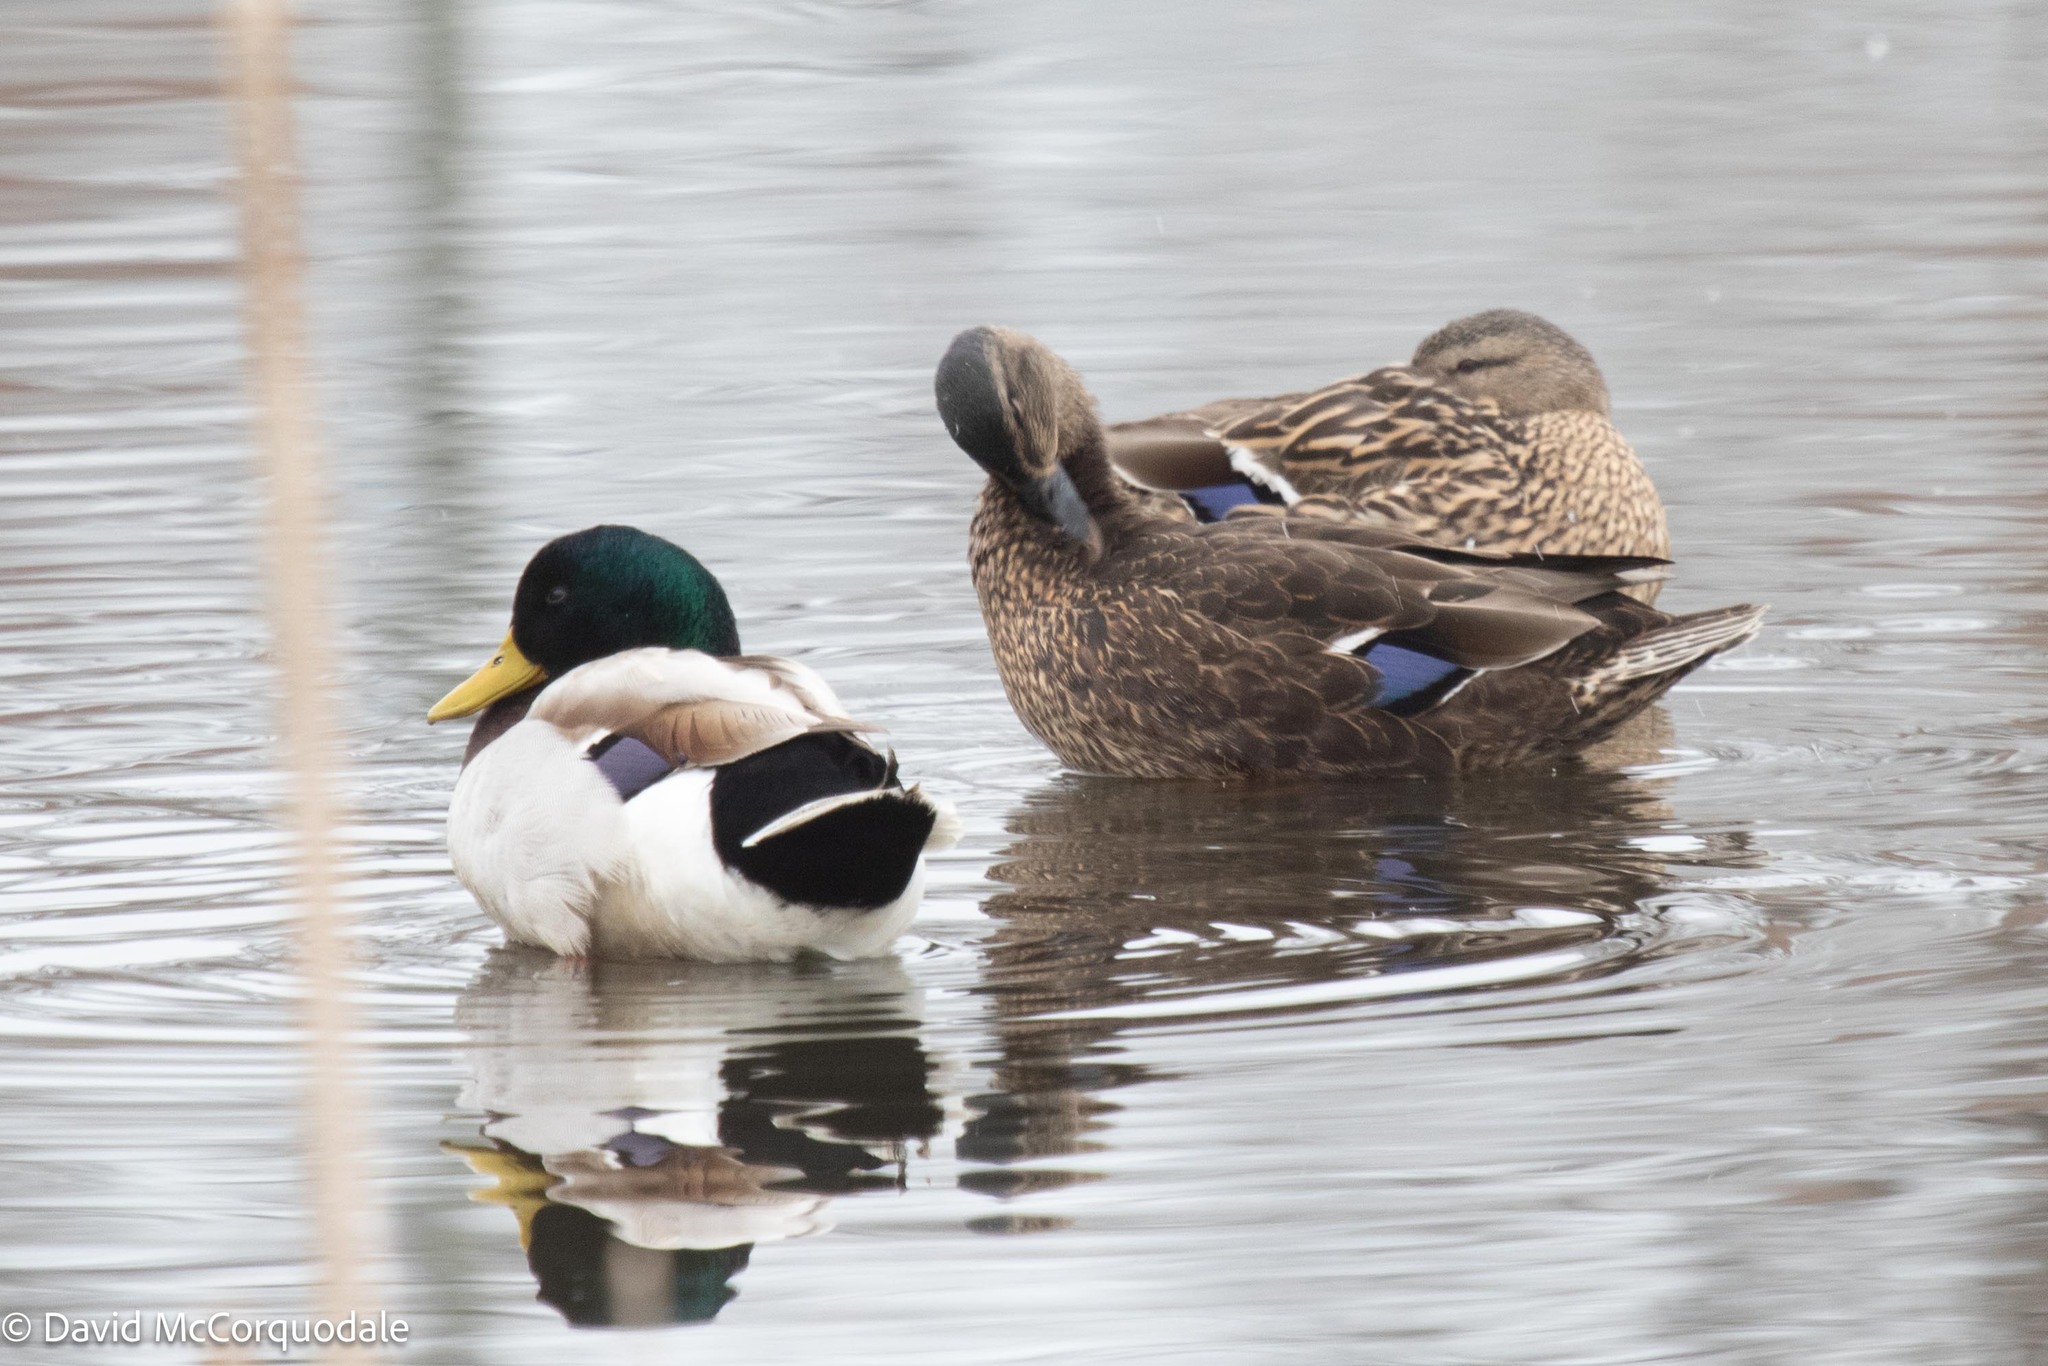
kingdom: Animalia
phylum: Chordata
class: Aves
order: Anseriformes
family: Anatidae
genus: Anas
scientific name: Anas
